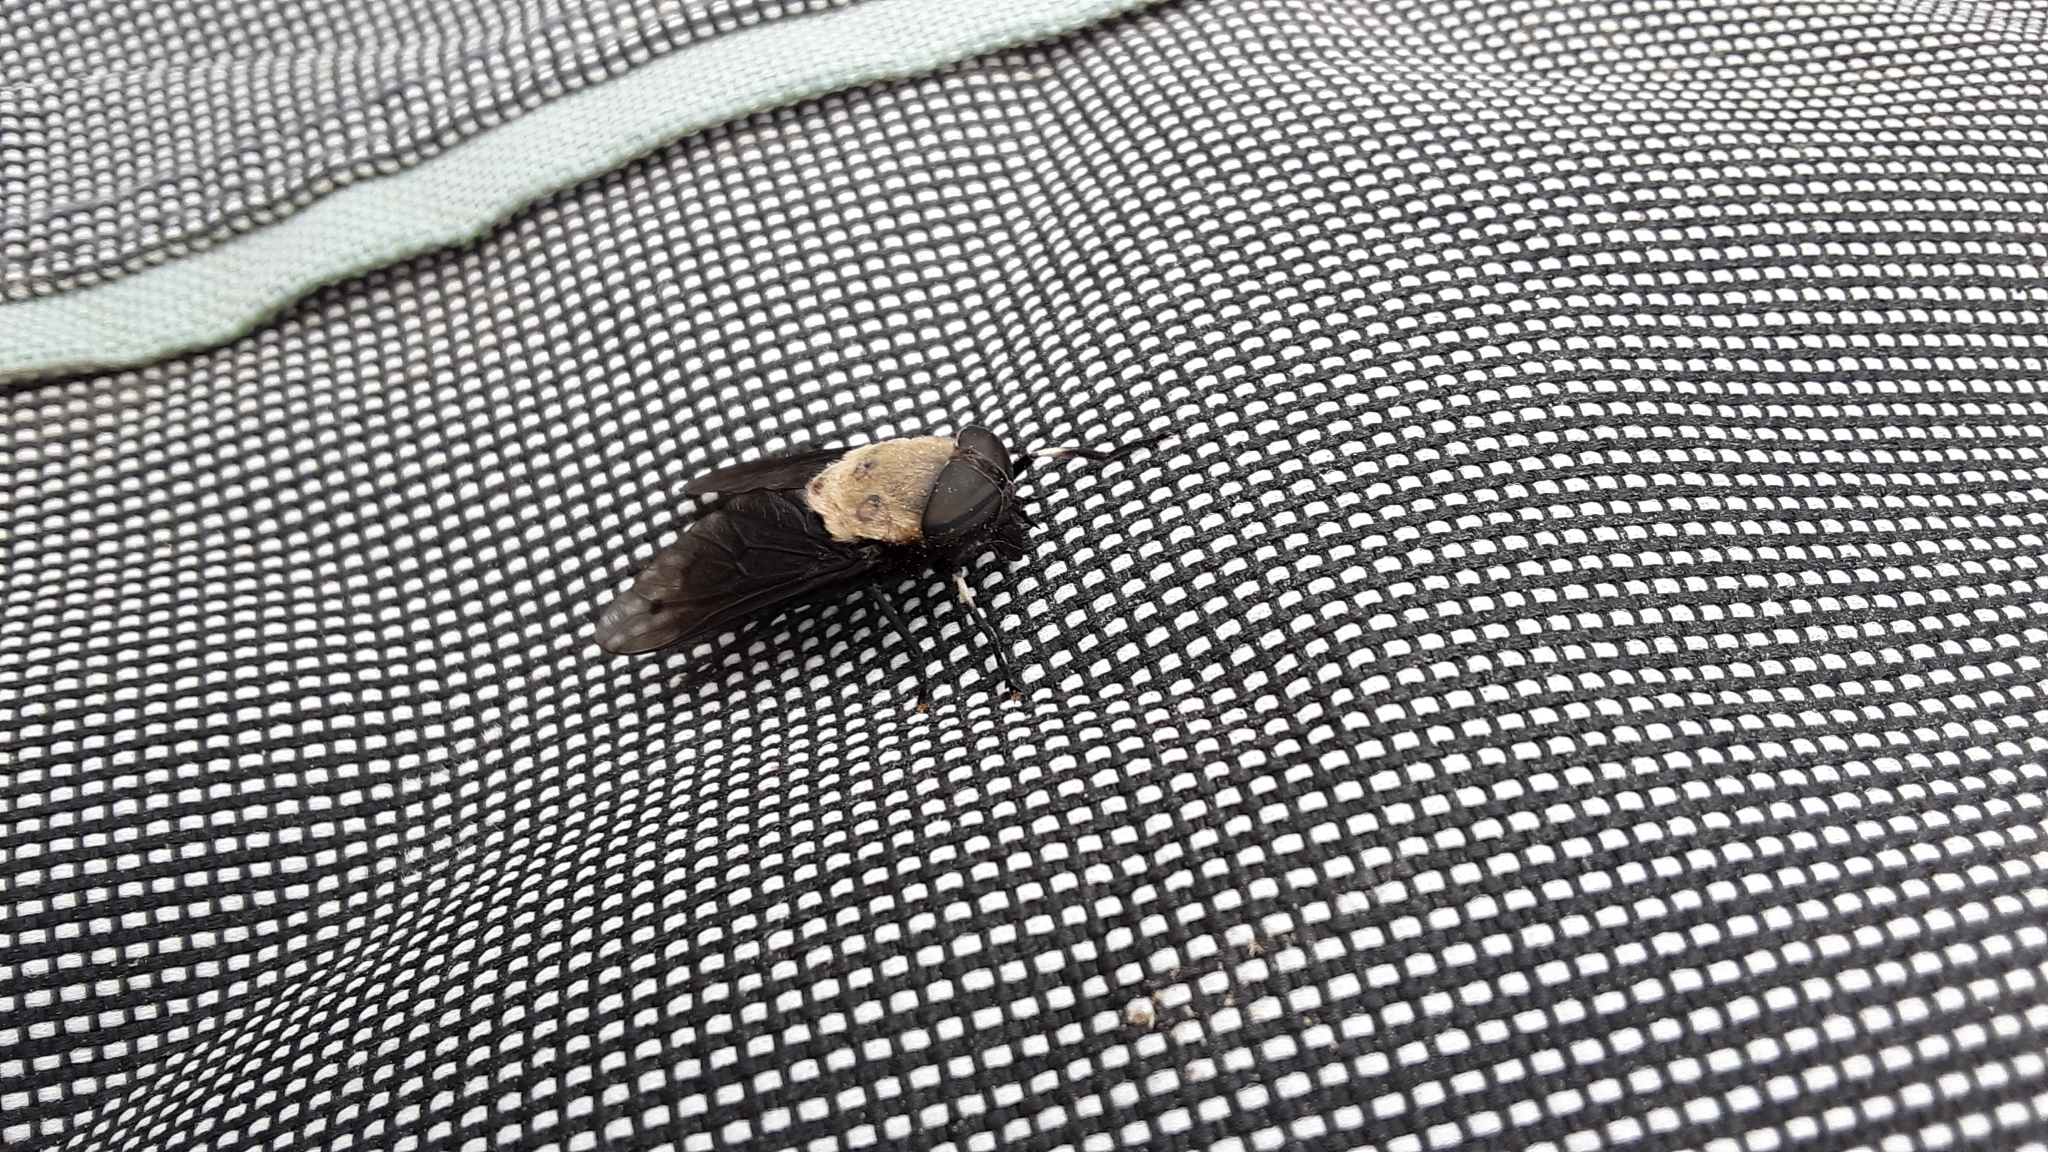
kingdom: Animalia
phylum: Arthropoda
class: Insecta
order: Diptera
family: Tabanidae
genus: Tabanus
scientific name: Tabanus punctifer
